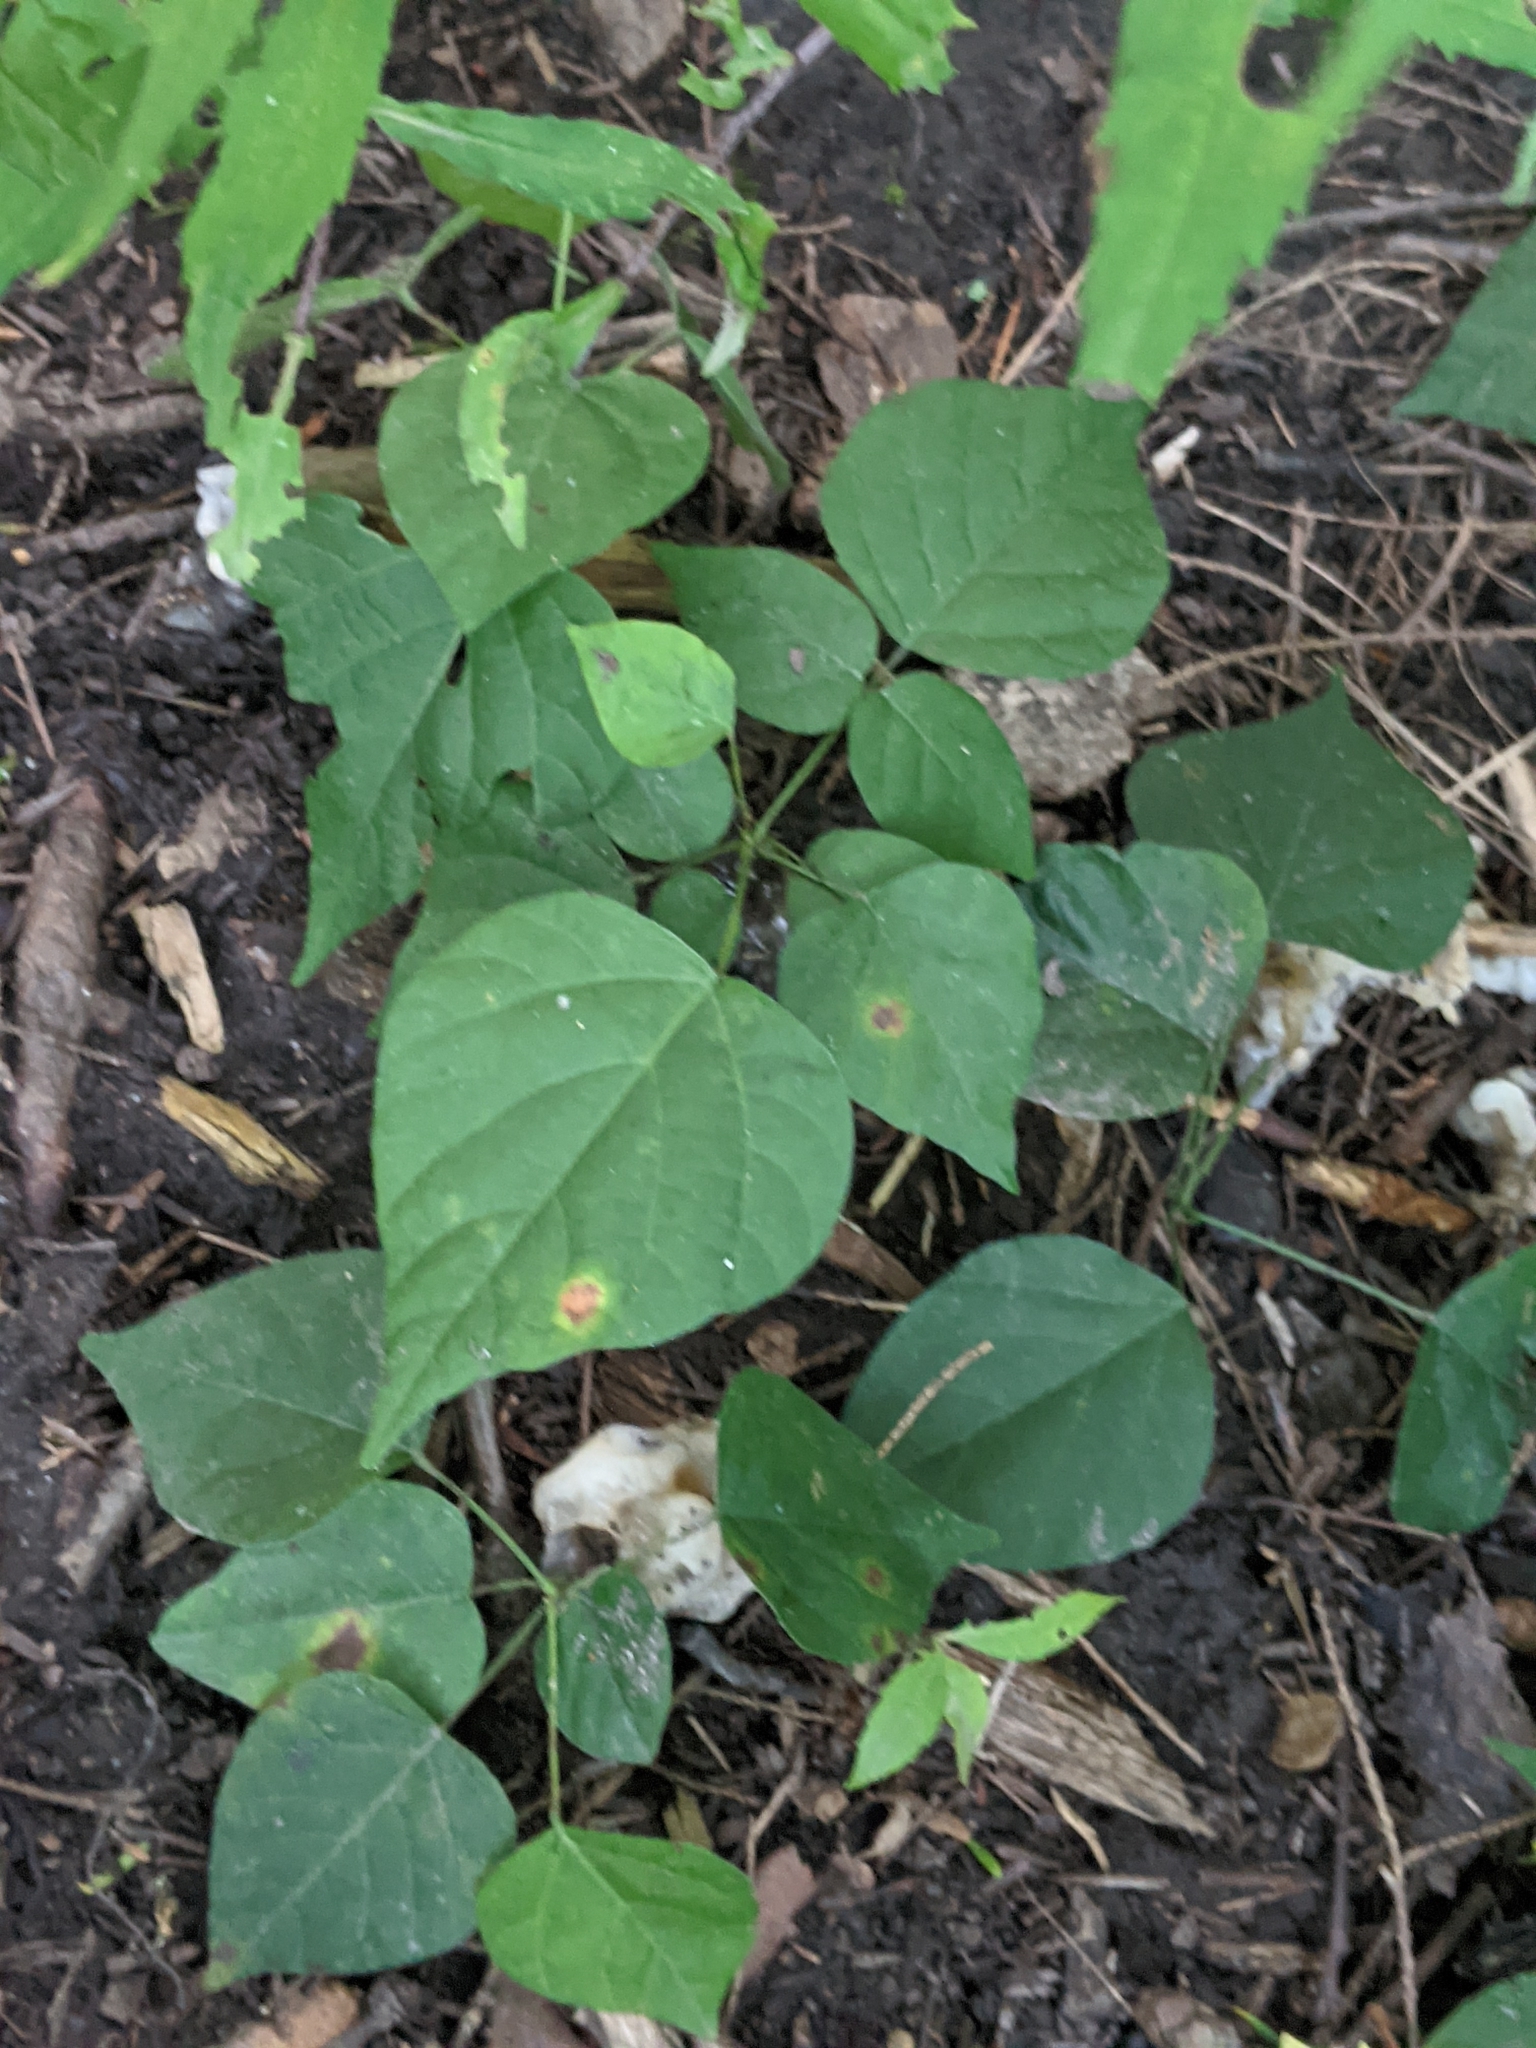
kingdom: Fungi
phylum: Basidiomycota
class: Agaricomycetes
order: Sebacinales
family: Sebacinaceae
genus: Helvellosebacina
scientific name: Helvellosebacina concrescens
